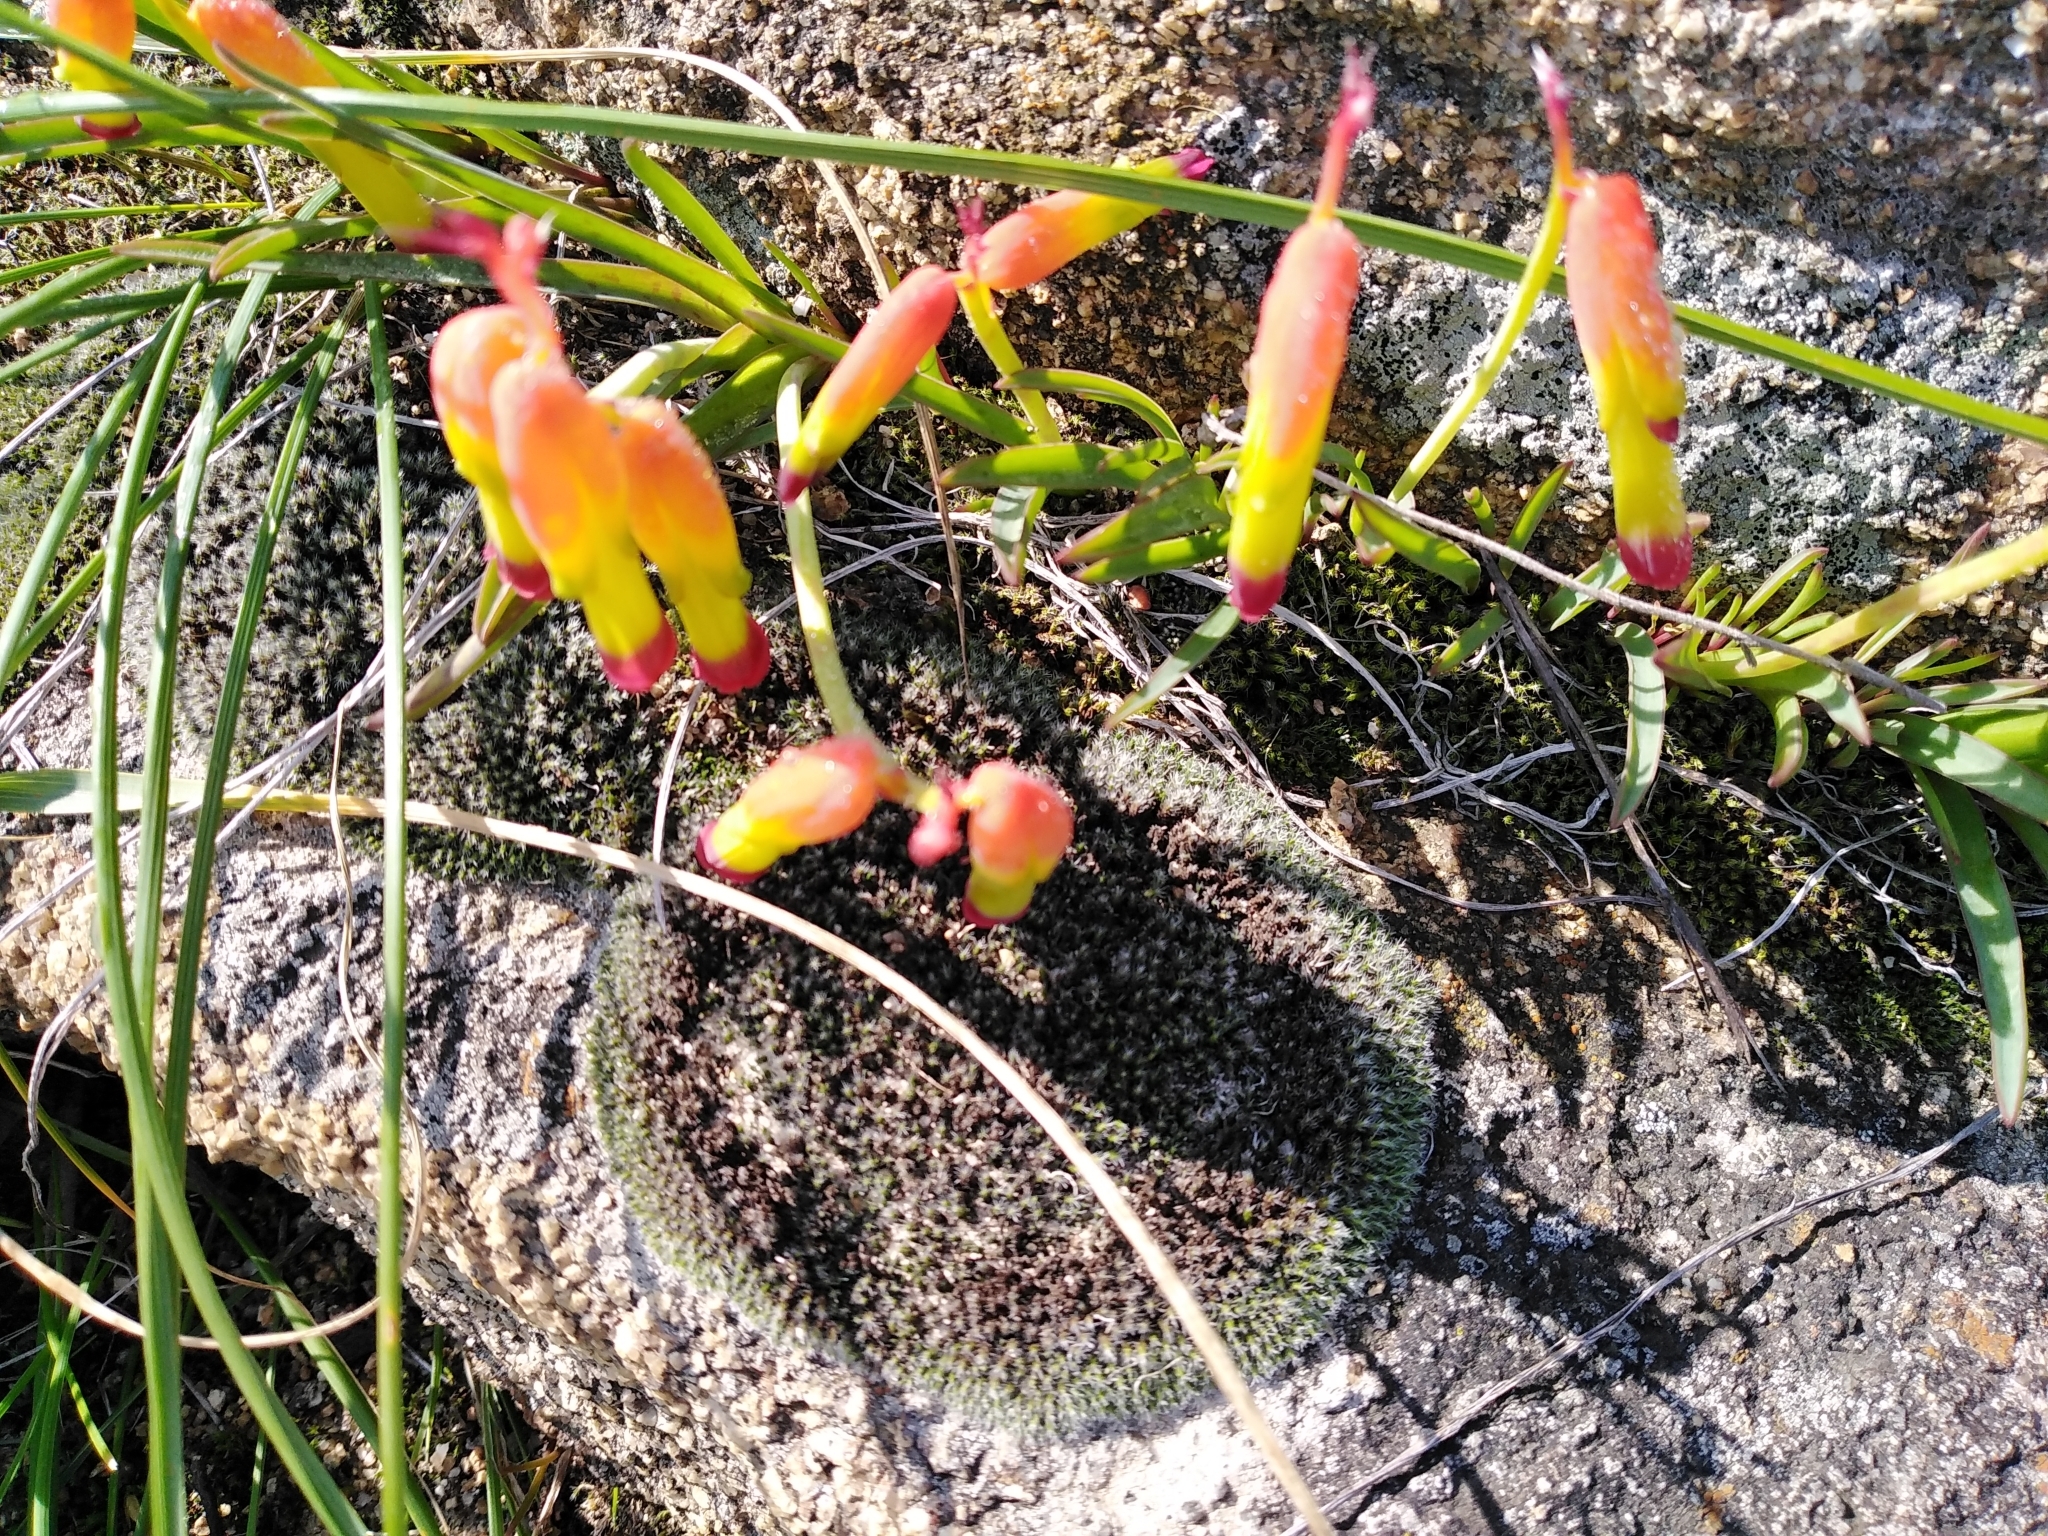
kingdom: Plantae
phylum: Tracheophyta
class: Liliopsida
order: Asparagales
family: Asparagaceae
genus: Lachenalia
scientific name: Lachenalia quadricolor
